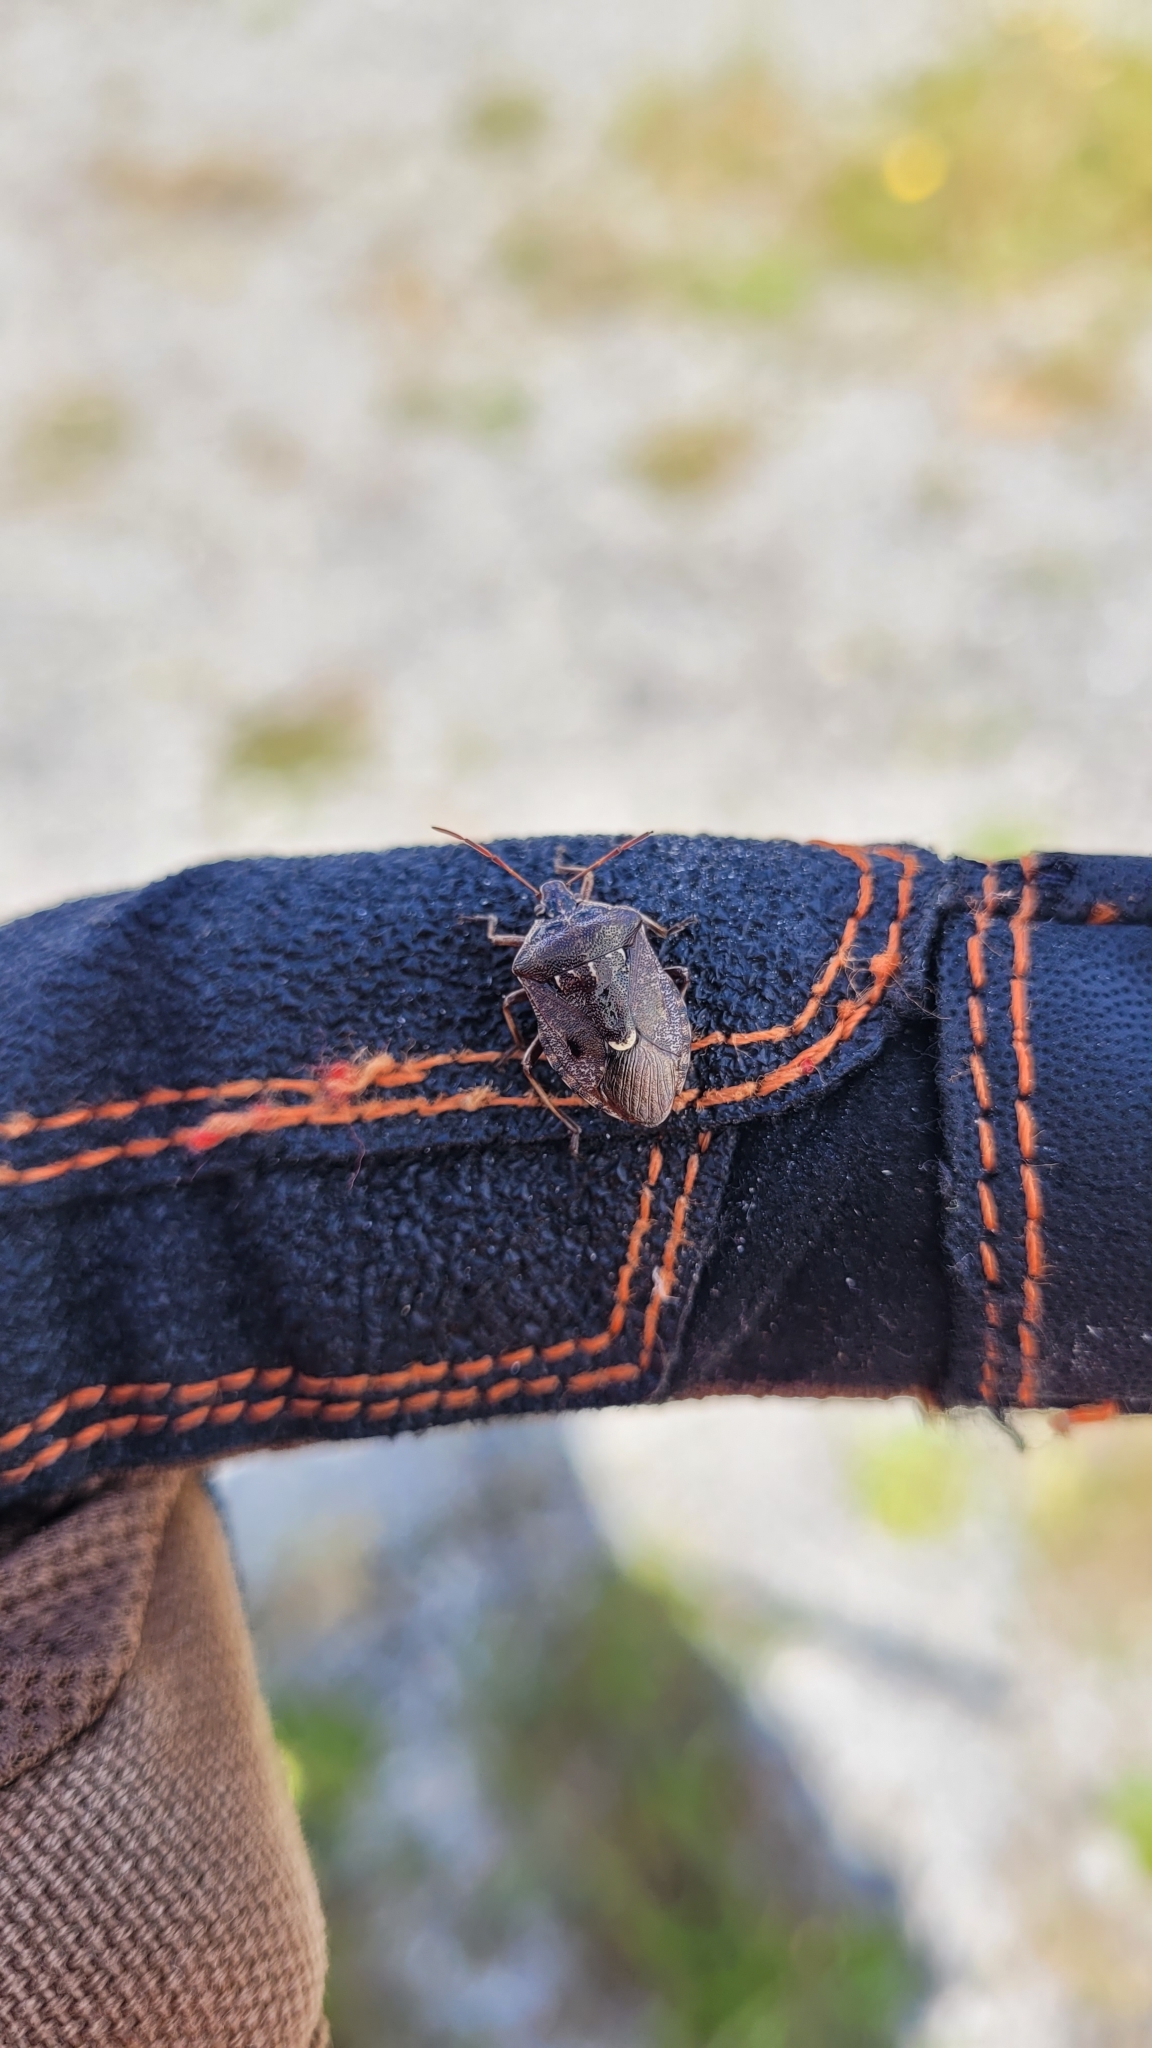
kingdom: Animalia
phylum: Arthropoda
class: Insecta
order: Hemiptera
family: Pentatomidae
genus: Cermatulus
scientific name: Cermatulus nasalis
